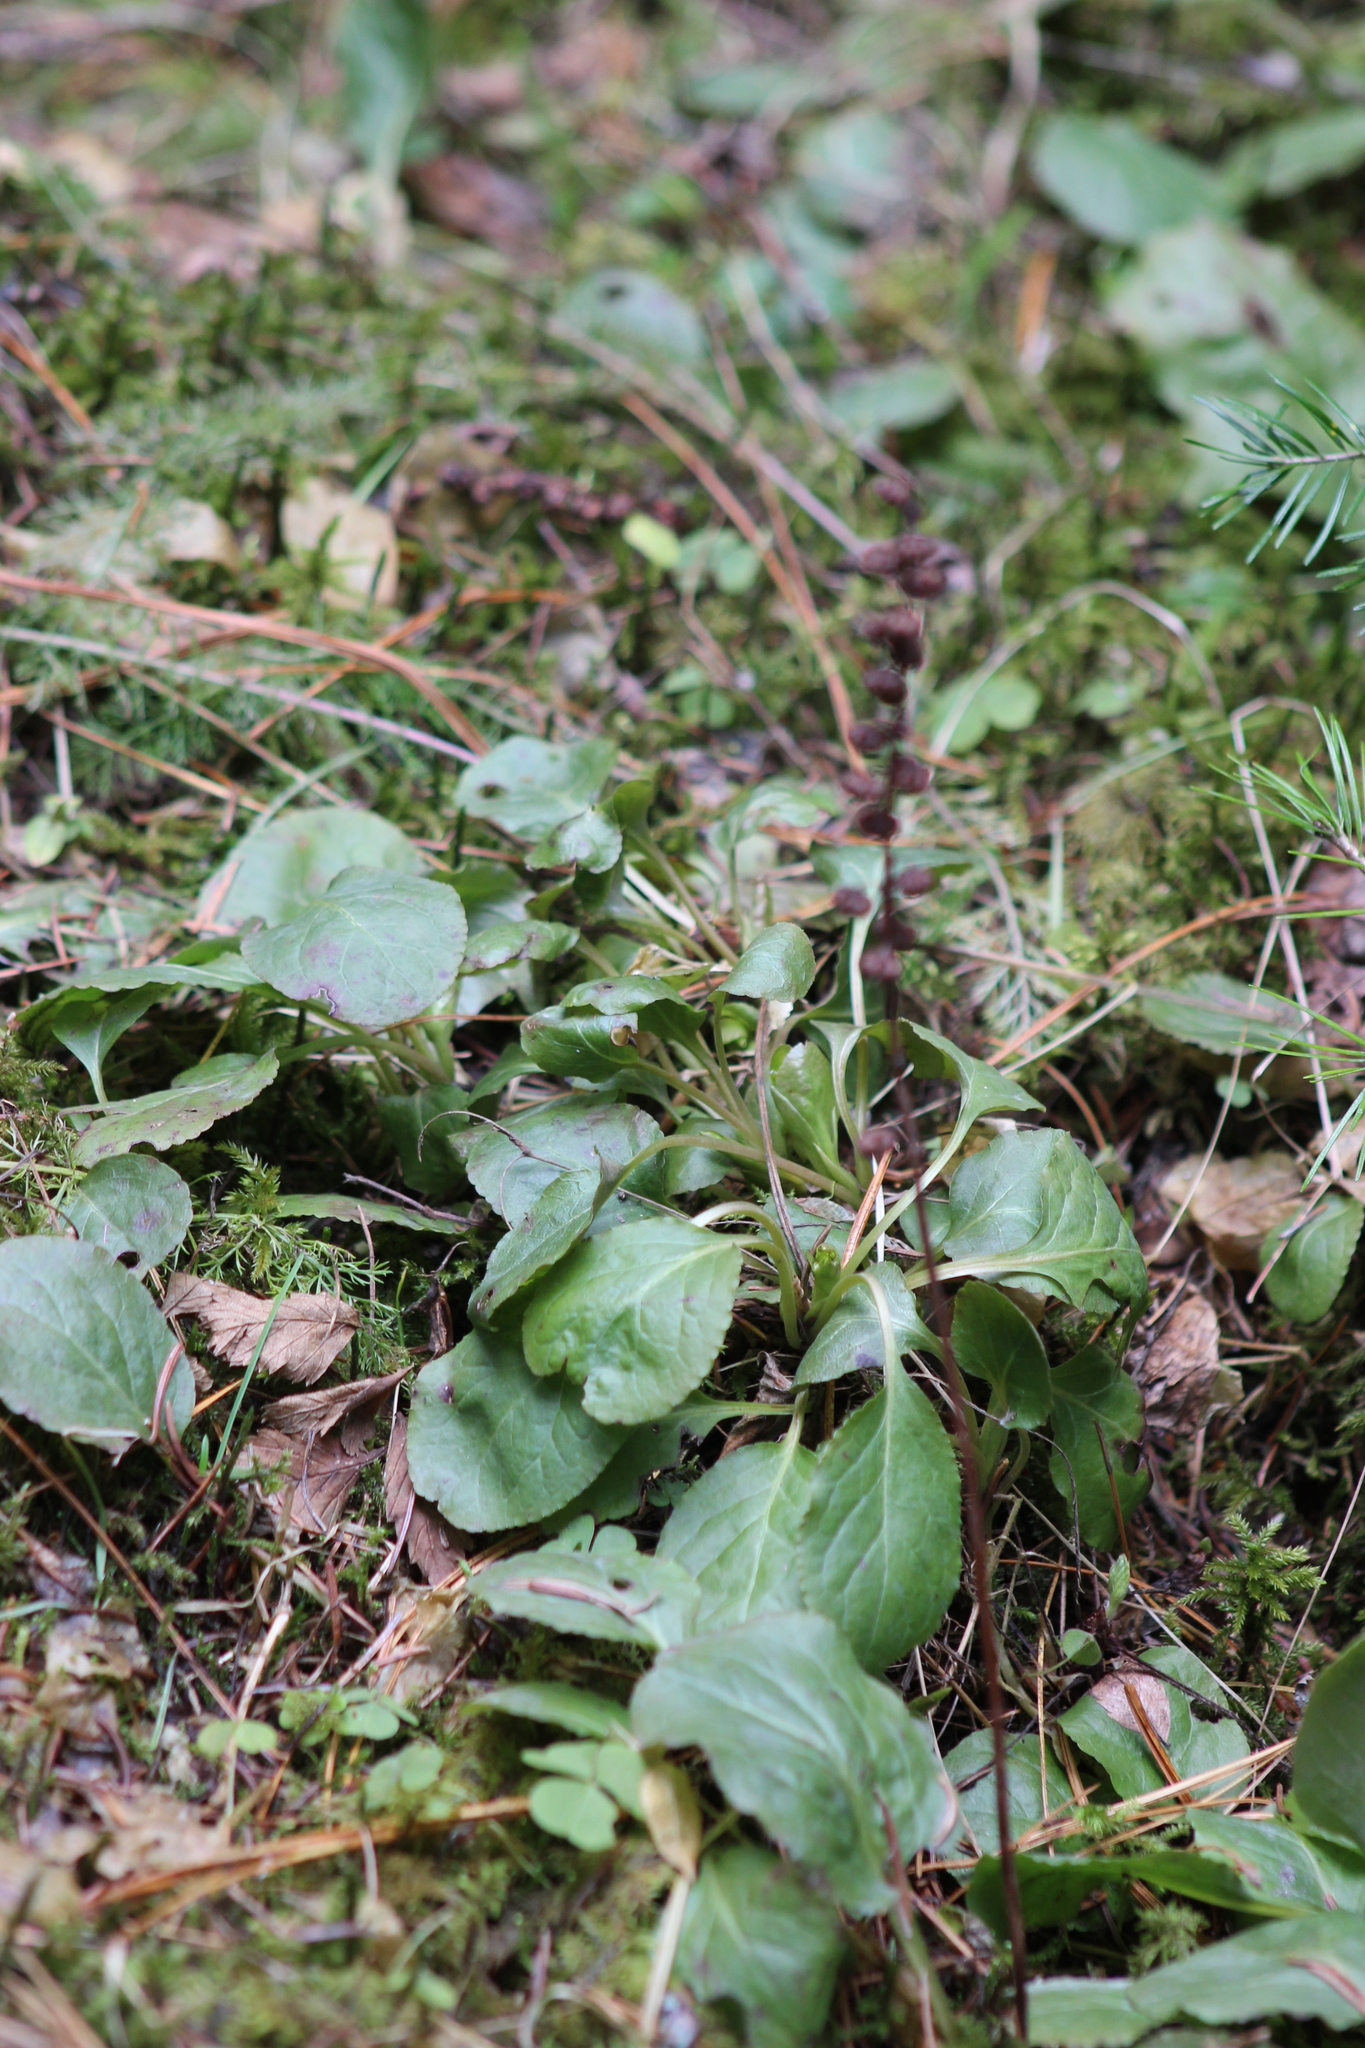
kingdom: Plantae
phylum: Tracheophyta
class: Magnoliopsida
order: Ericales
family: Ericaceae
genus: Pyrola
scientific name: Pyrola minor
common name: Common wintergreen
